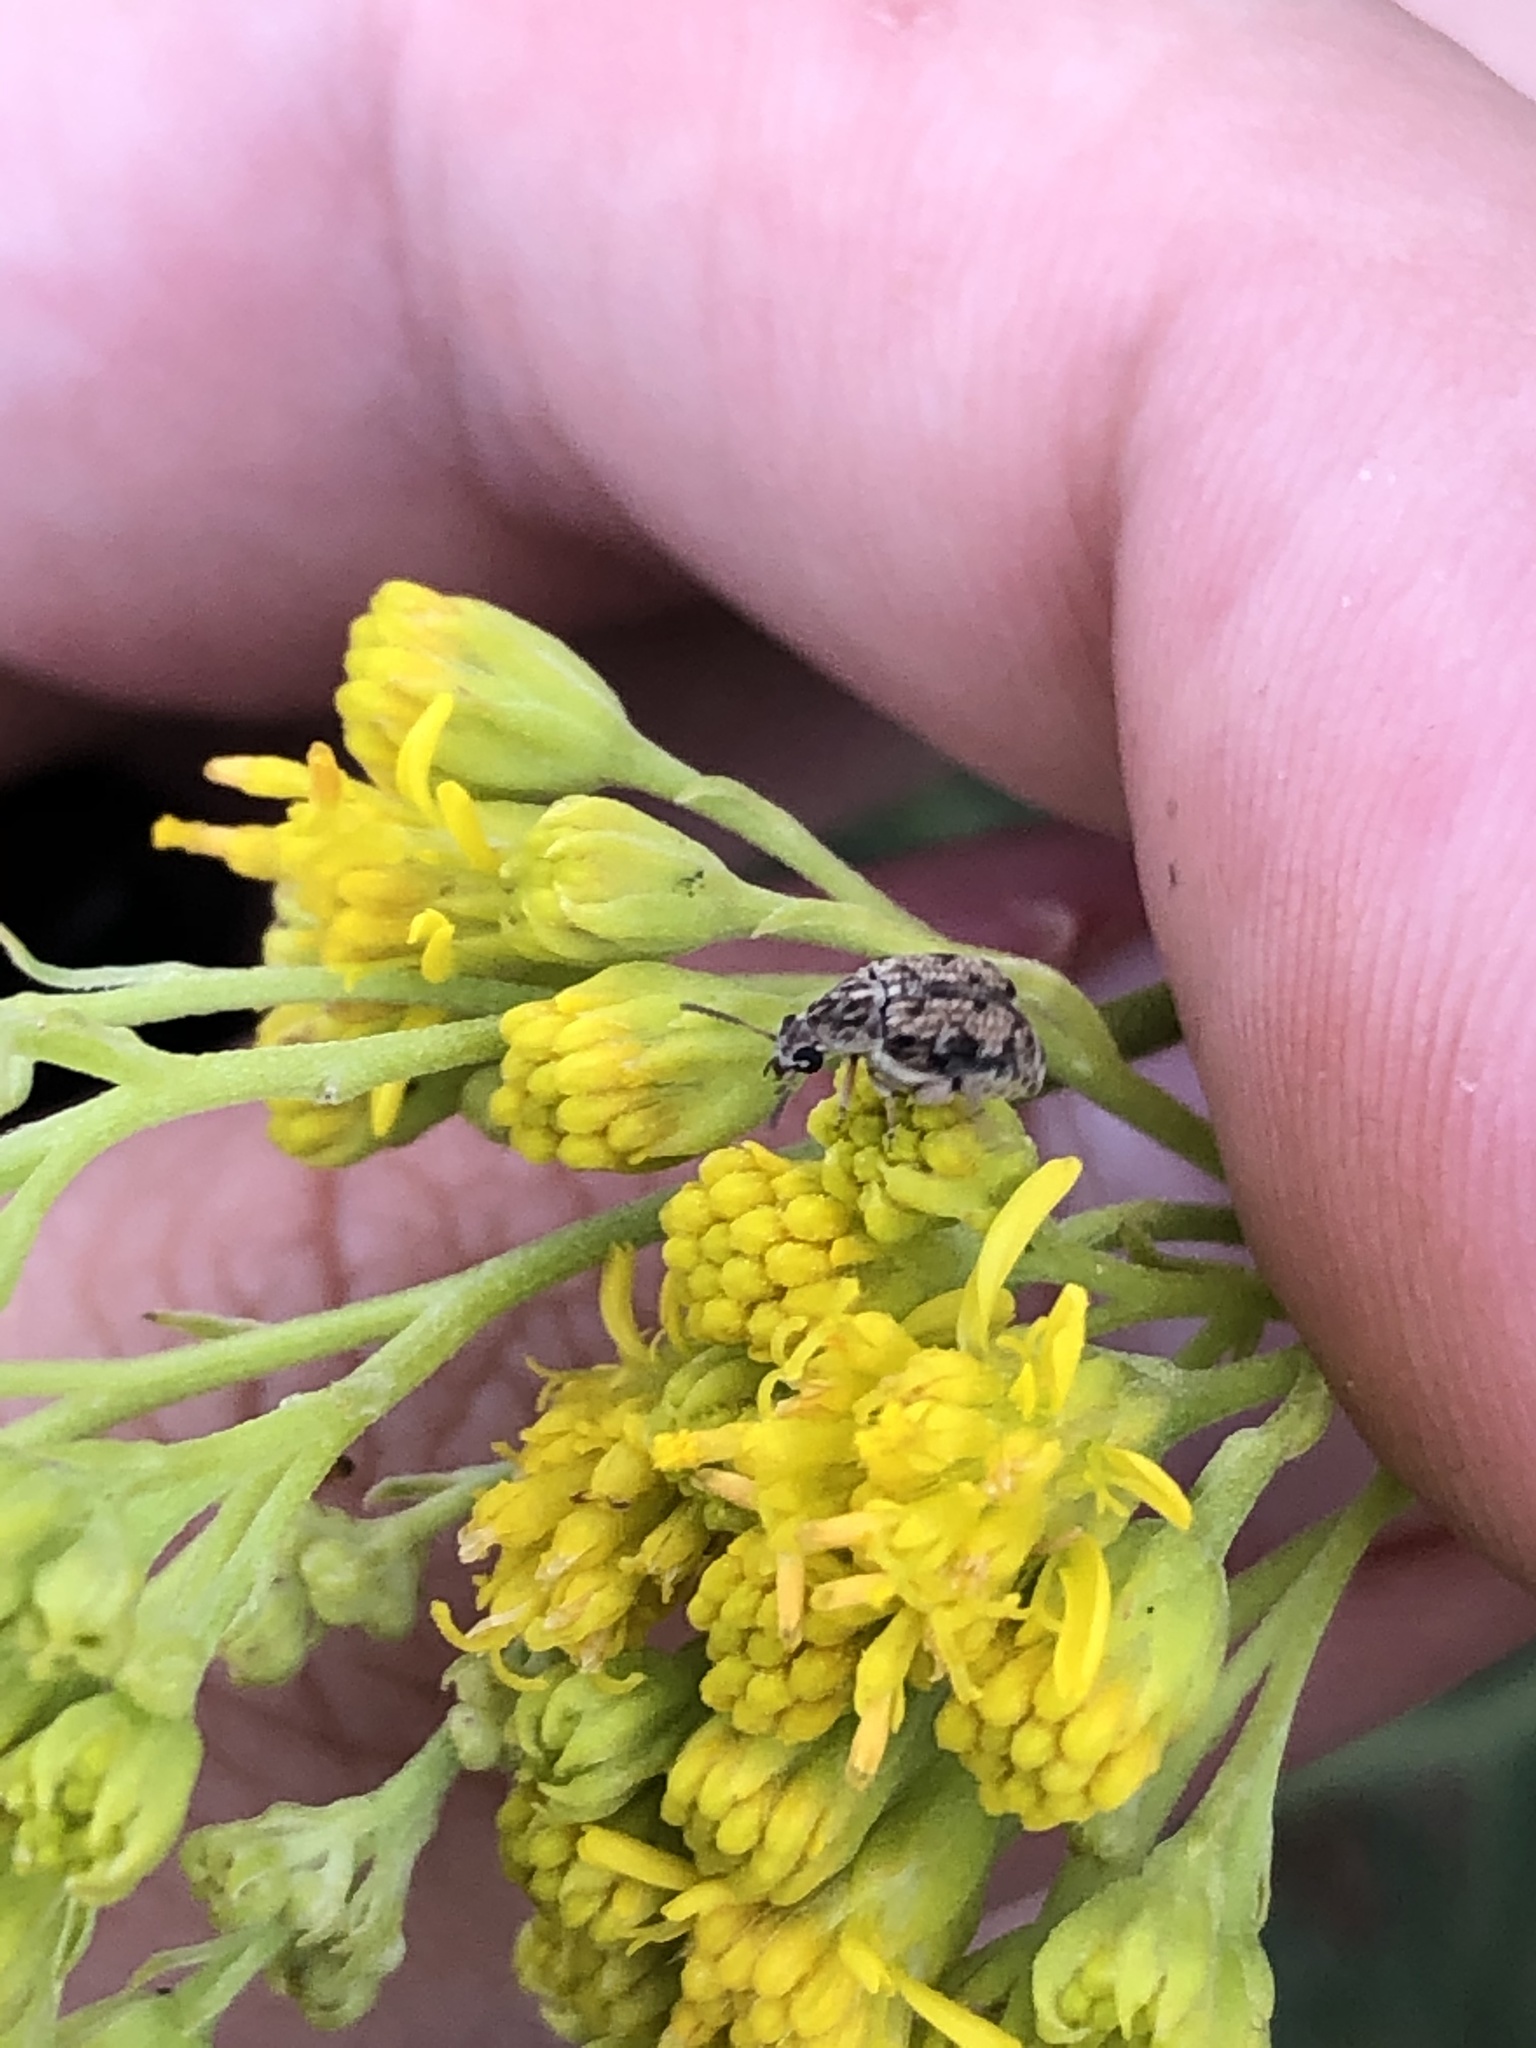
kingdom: Animalia
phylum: Arthropoda
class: Insecta
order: Coleoptera
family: Chrysomelidae
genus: Algarobius
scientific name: Algarobius prosopis
